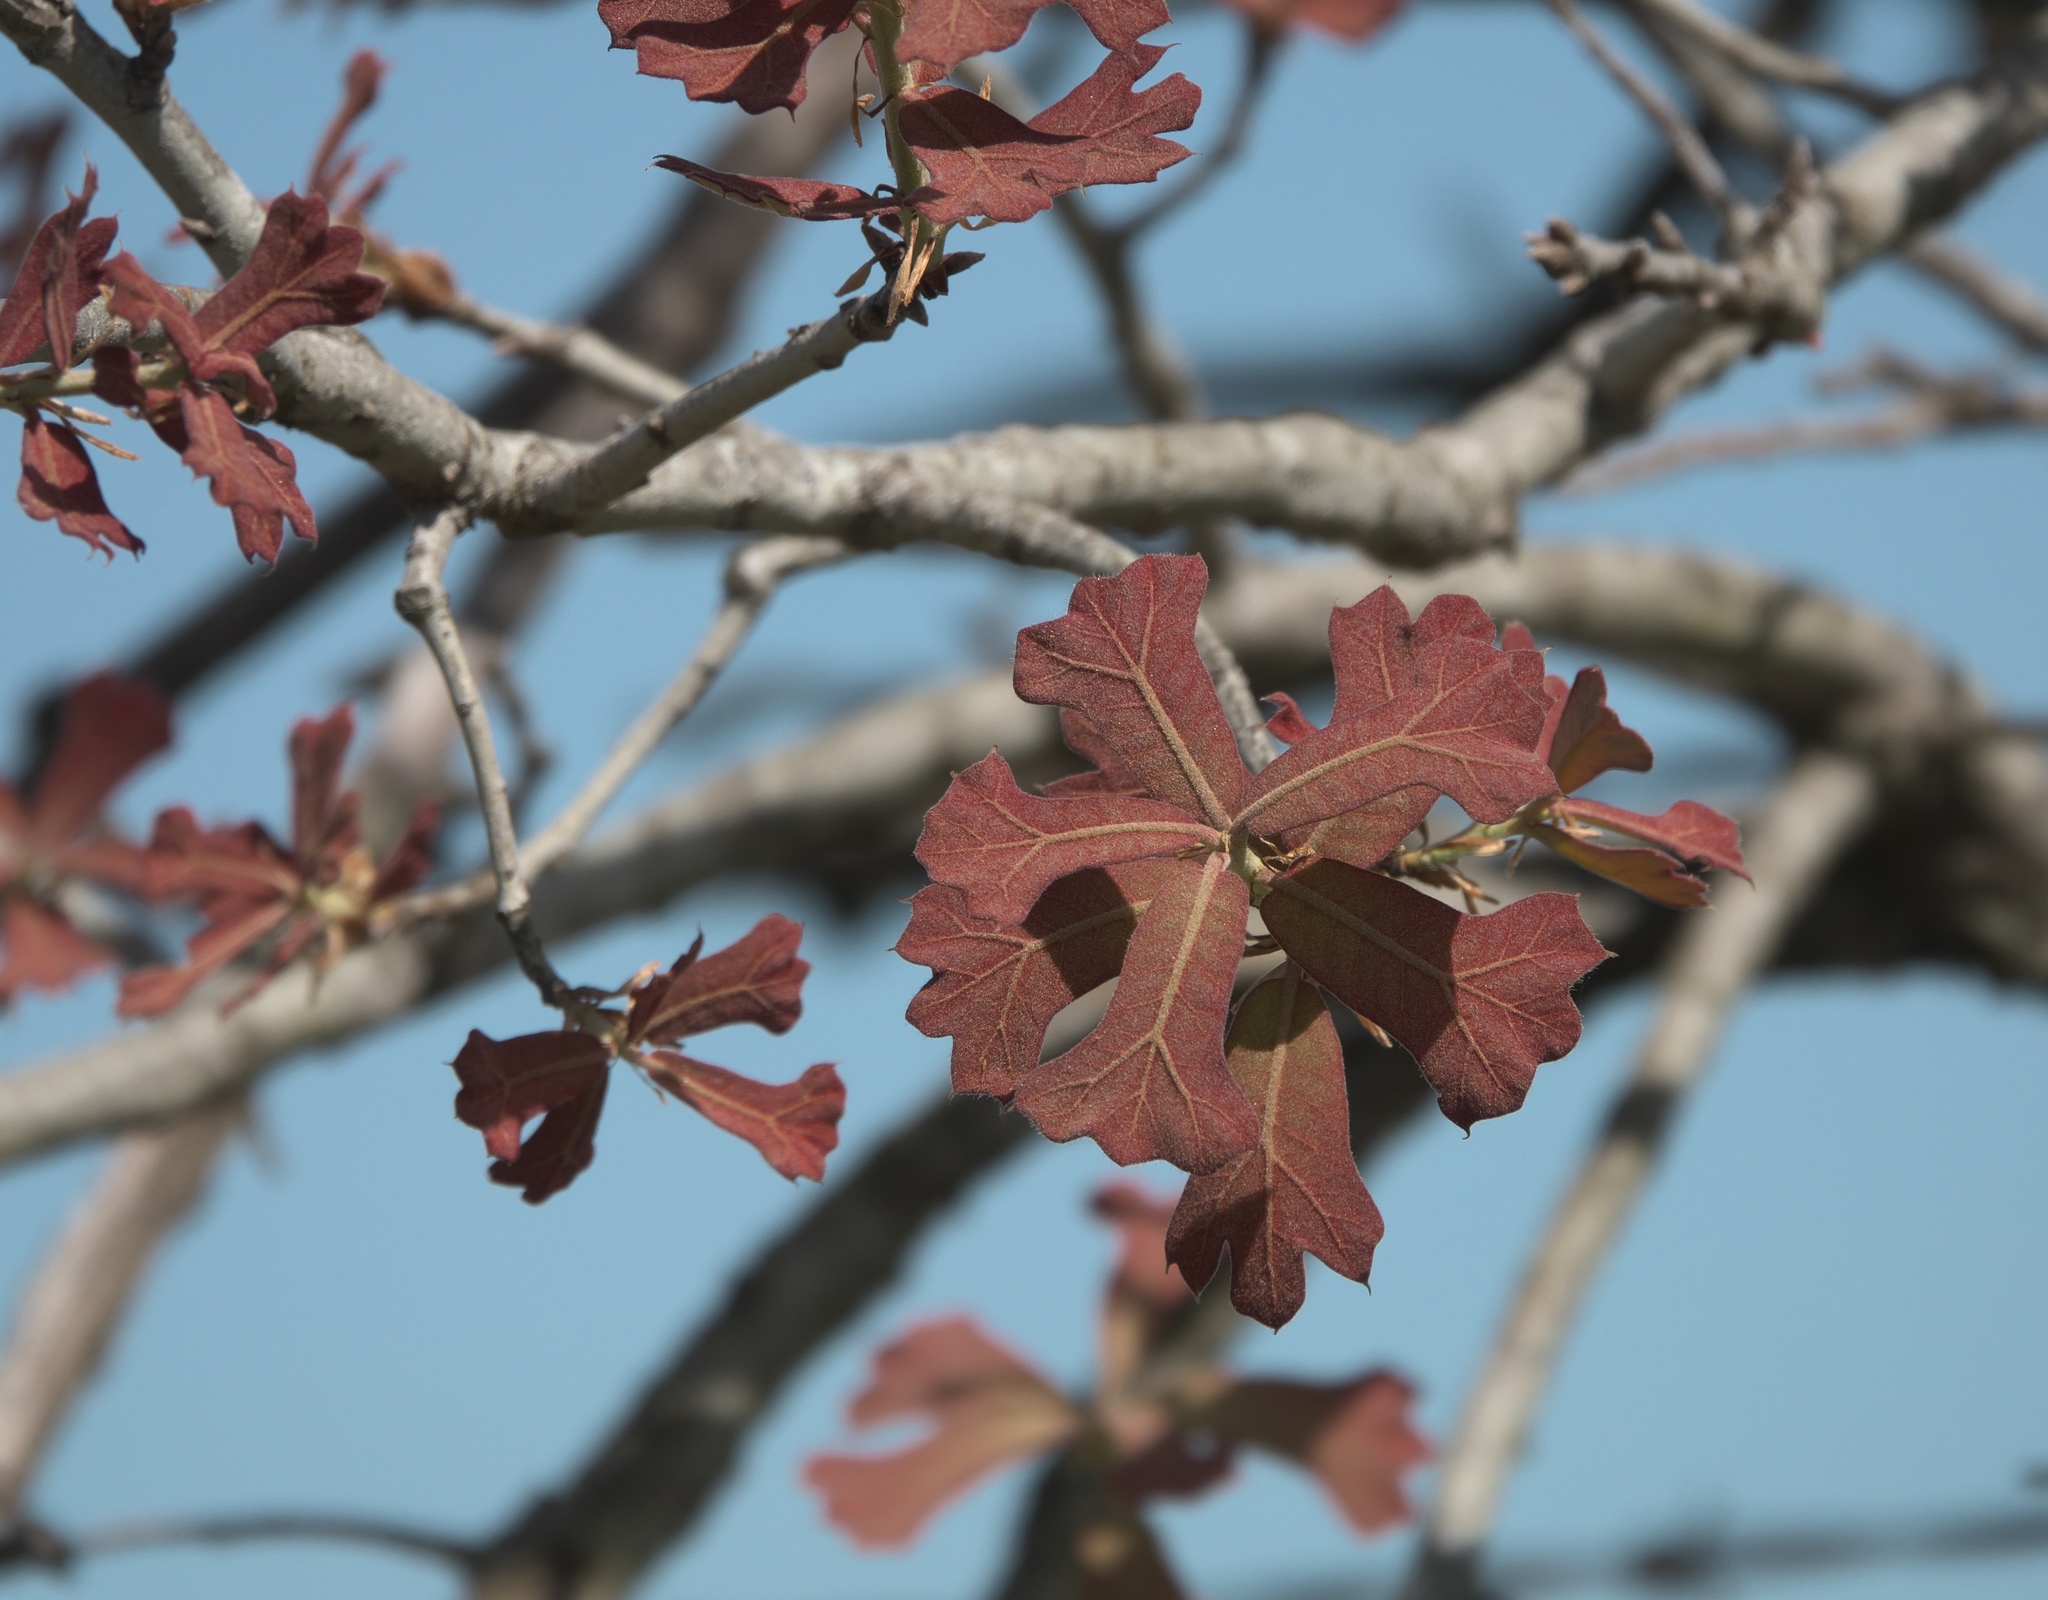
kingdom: Plantae
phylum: Tracheophyta
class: Magnoliopsida
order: Fagales
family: Fagaceae
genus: Quercus
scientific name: Quercus marilandica
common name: Blackjack oak
